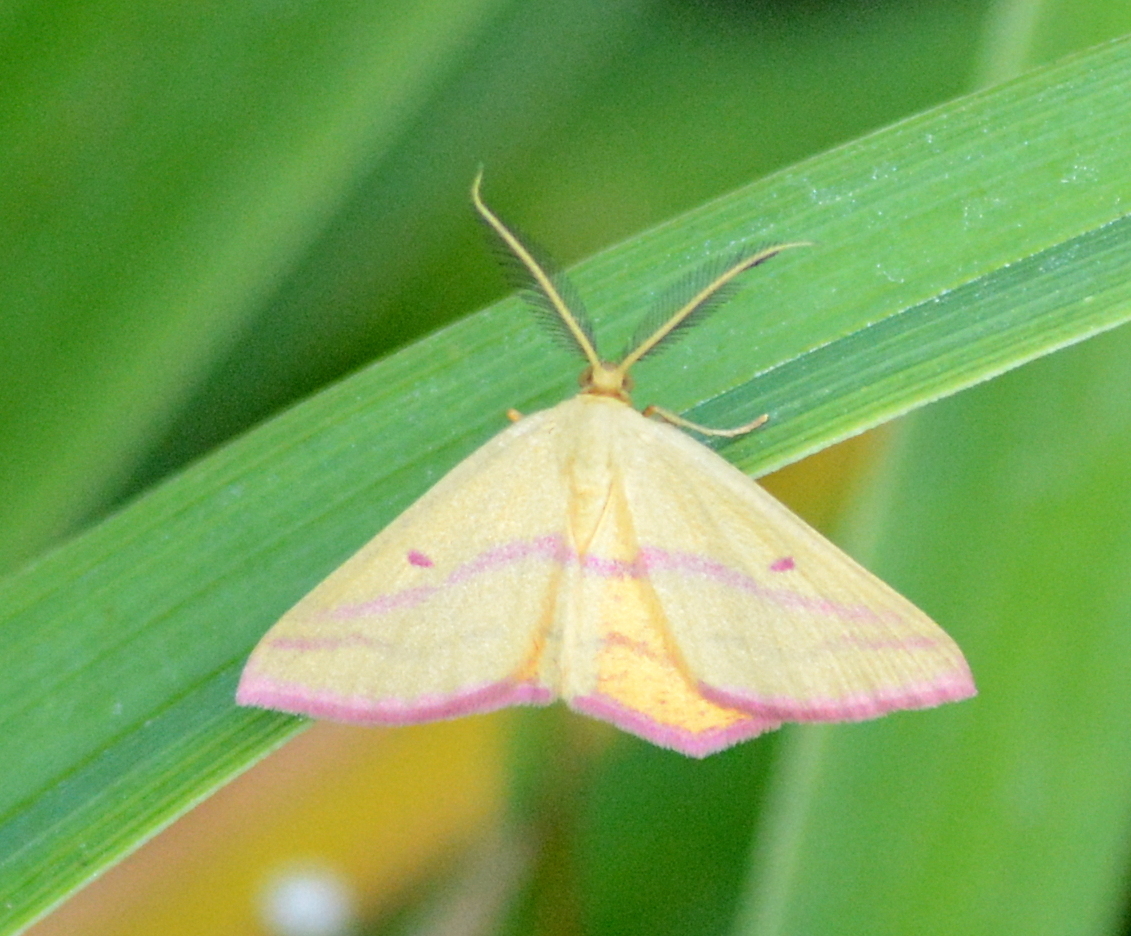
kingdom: Animalia
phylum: Arthropoda
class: Insecta
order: Lepidoptera
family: Geometridae
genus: Haematopis
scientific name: Haematopis grataria
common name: Chickweed geometer
